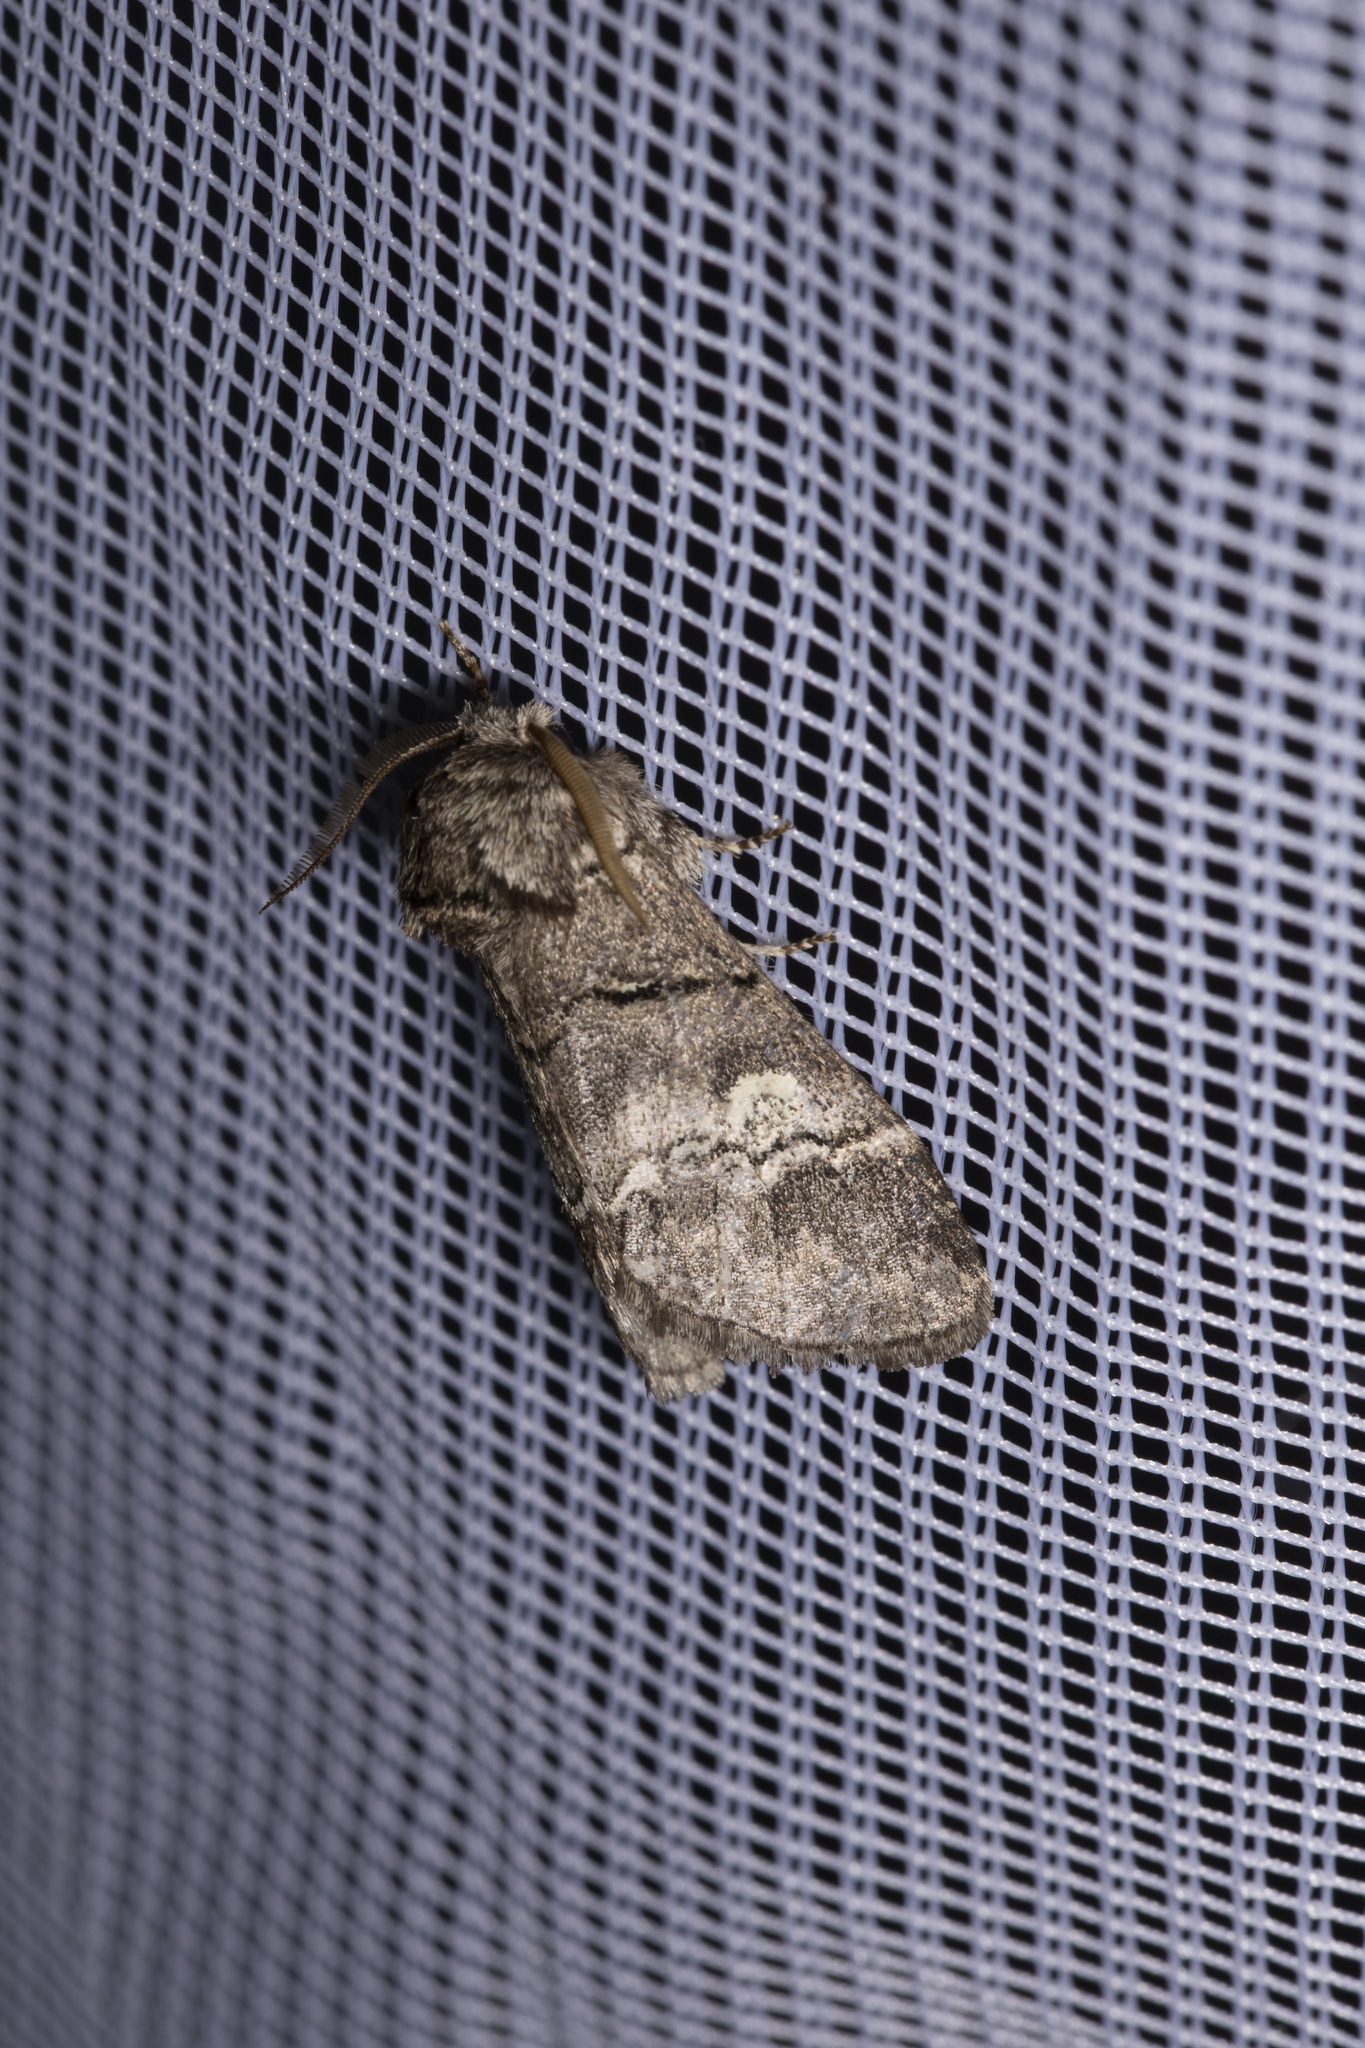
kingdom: Animalia
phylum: Arthropoda
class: Insecta
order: Lepidoptera
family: Notodontidae
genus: Drymonia
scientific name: Drymonia querna
